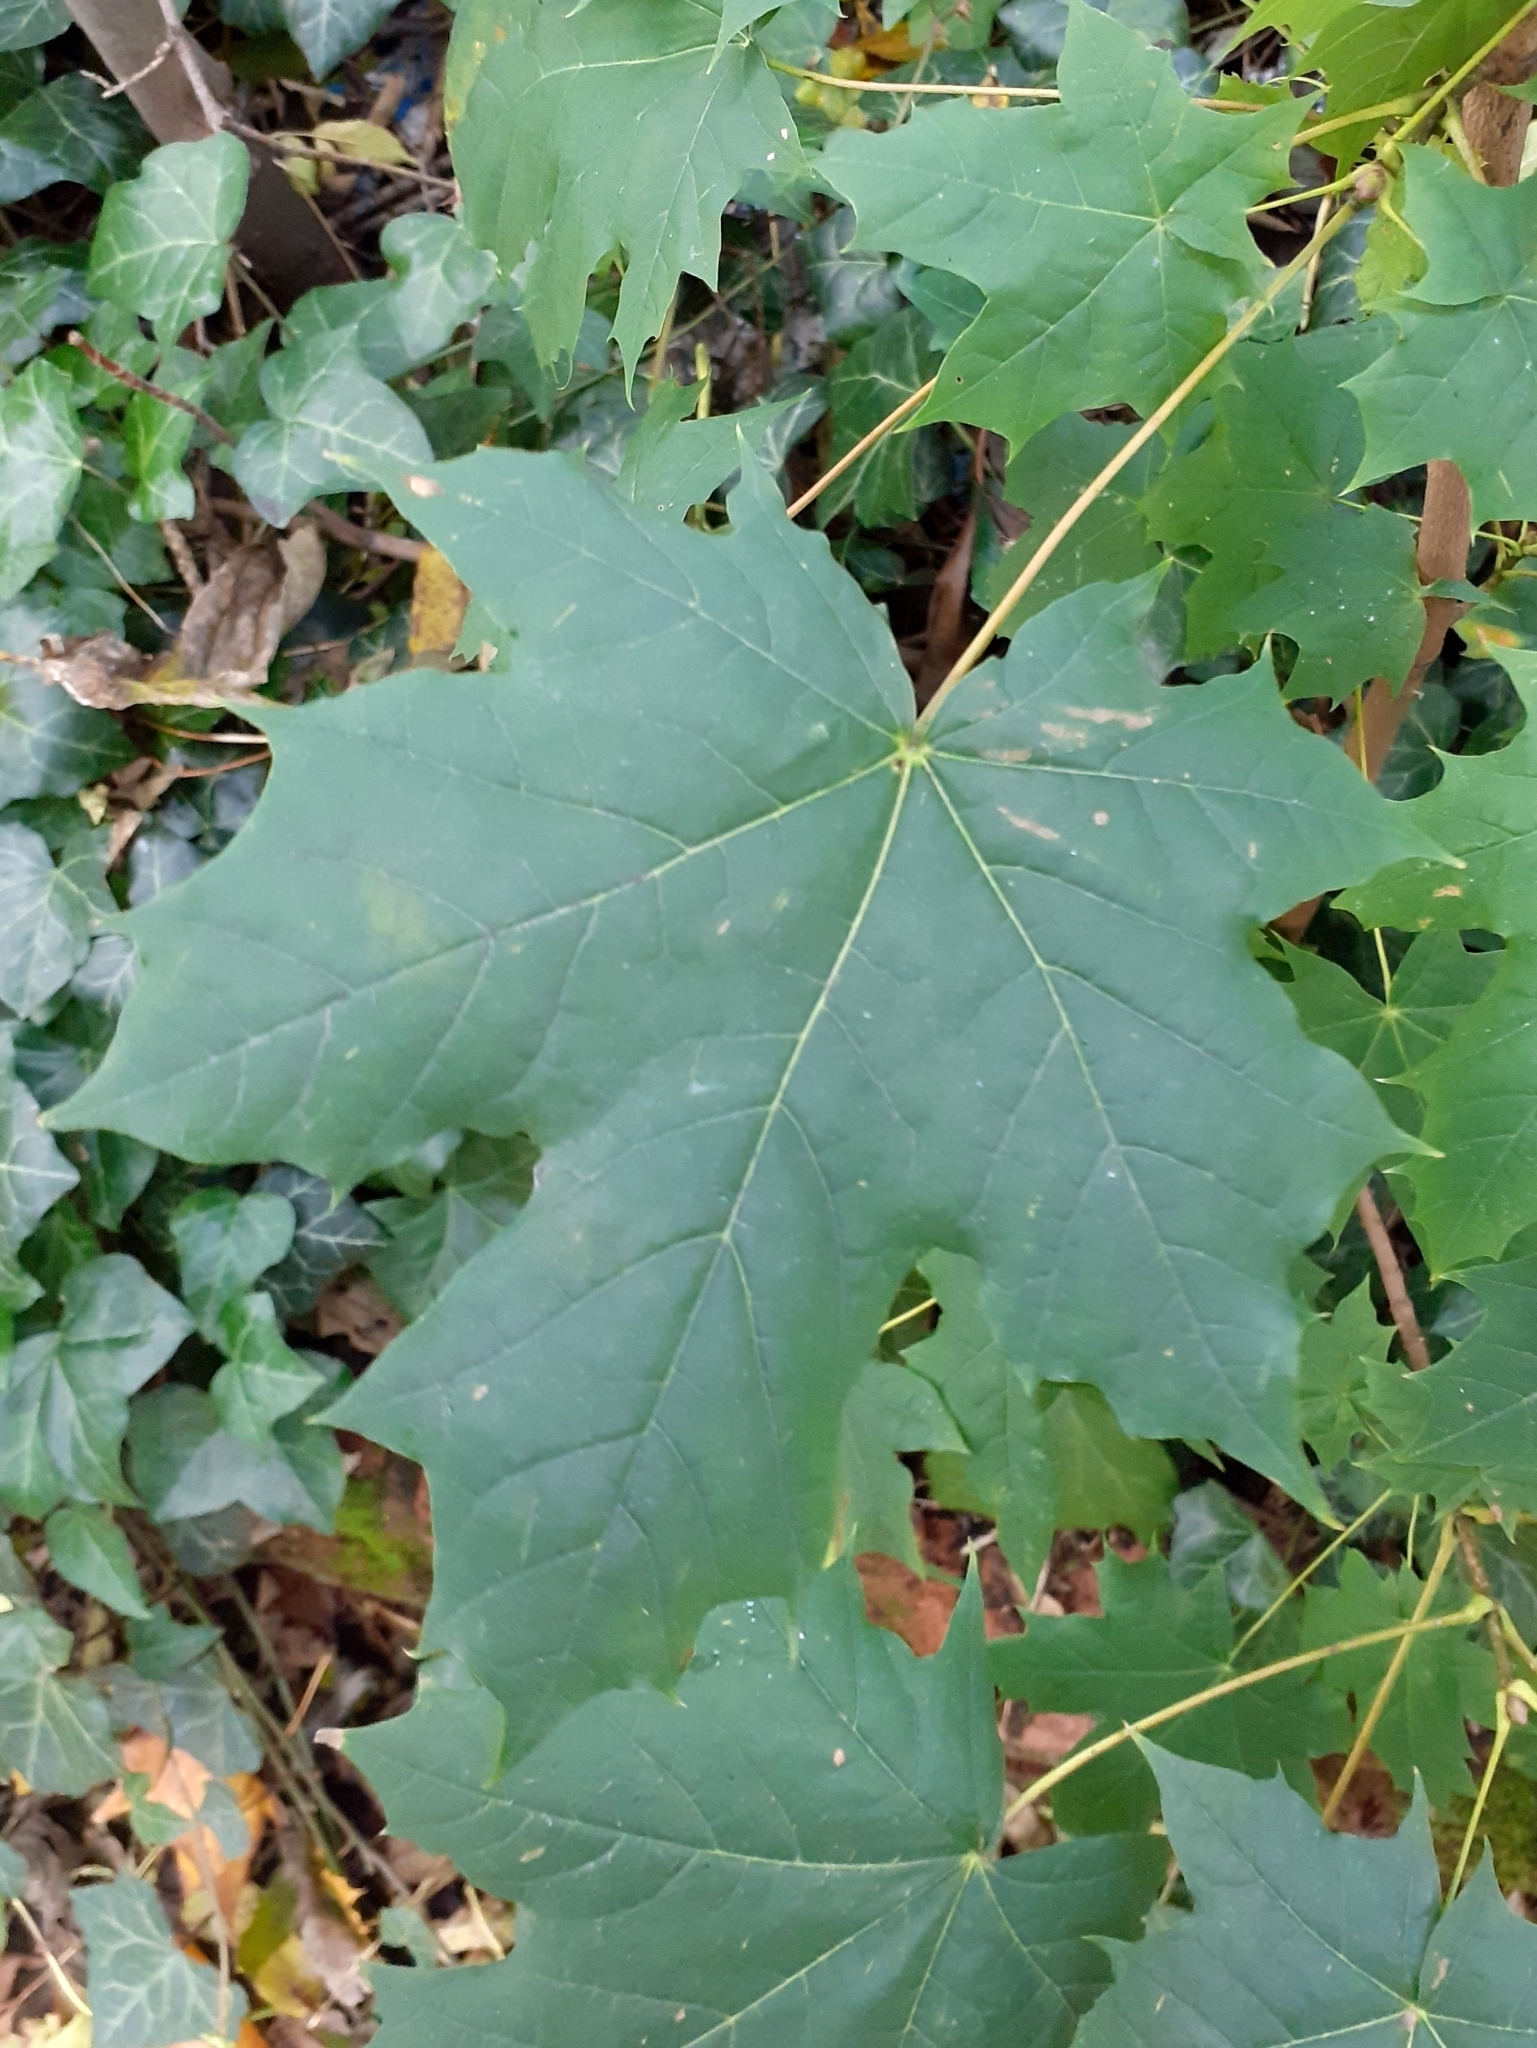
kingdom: Plantae
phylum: Tracheophyta
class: Magnoliopsida
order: Sapindales
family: Sapindaceae
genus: Acer
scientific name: Acer platanoides
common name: Norway maple
